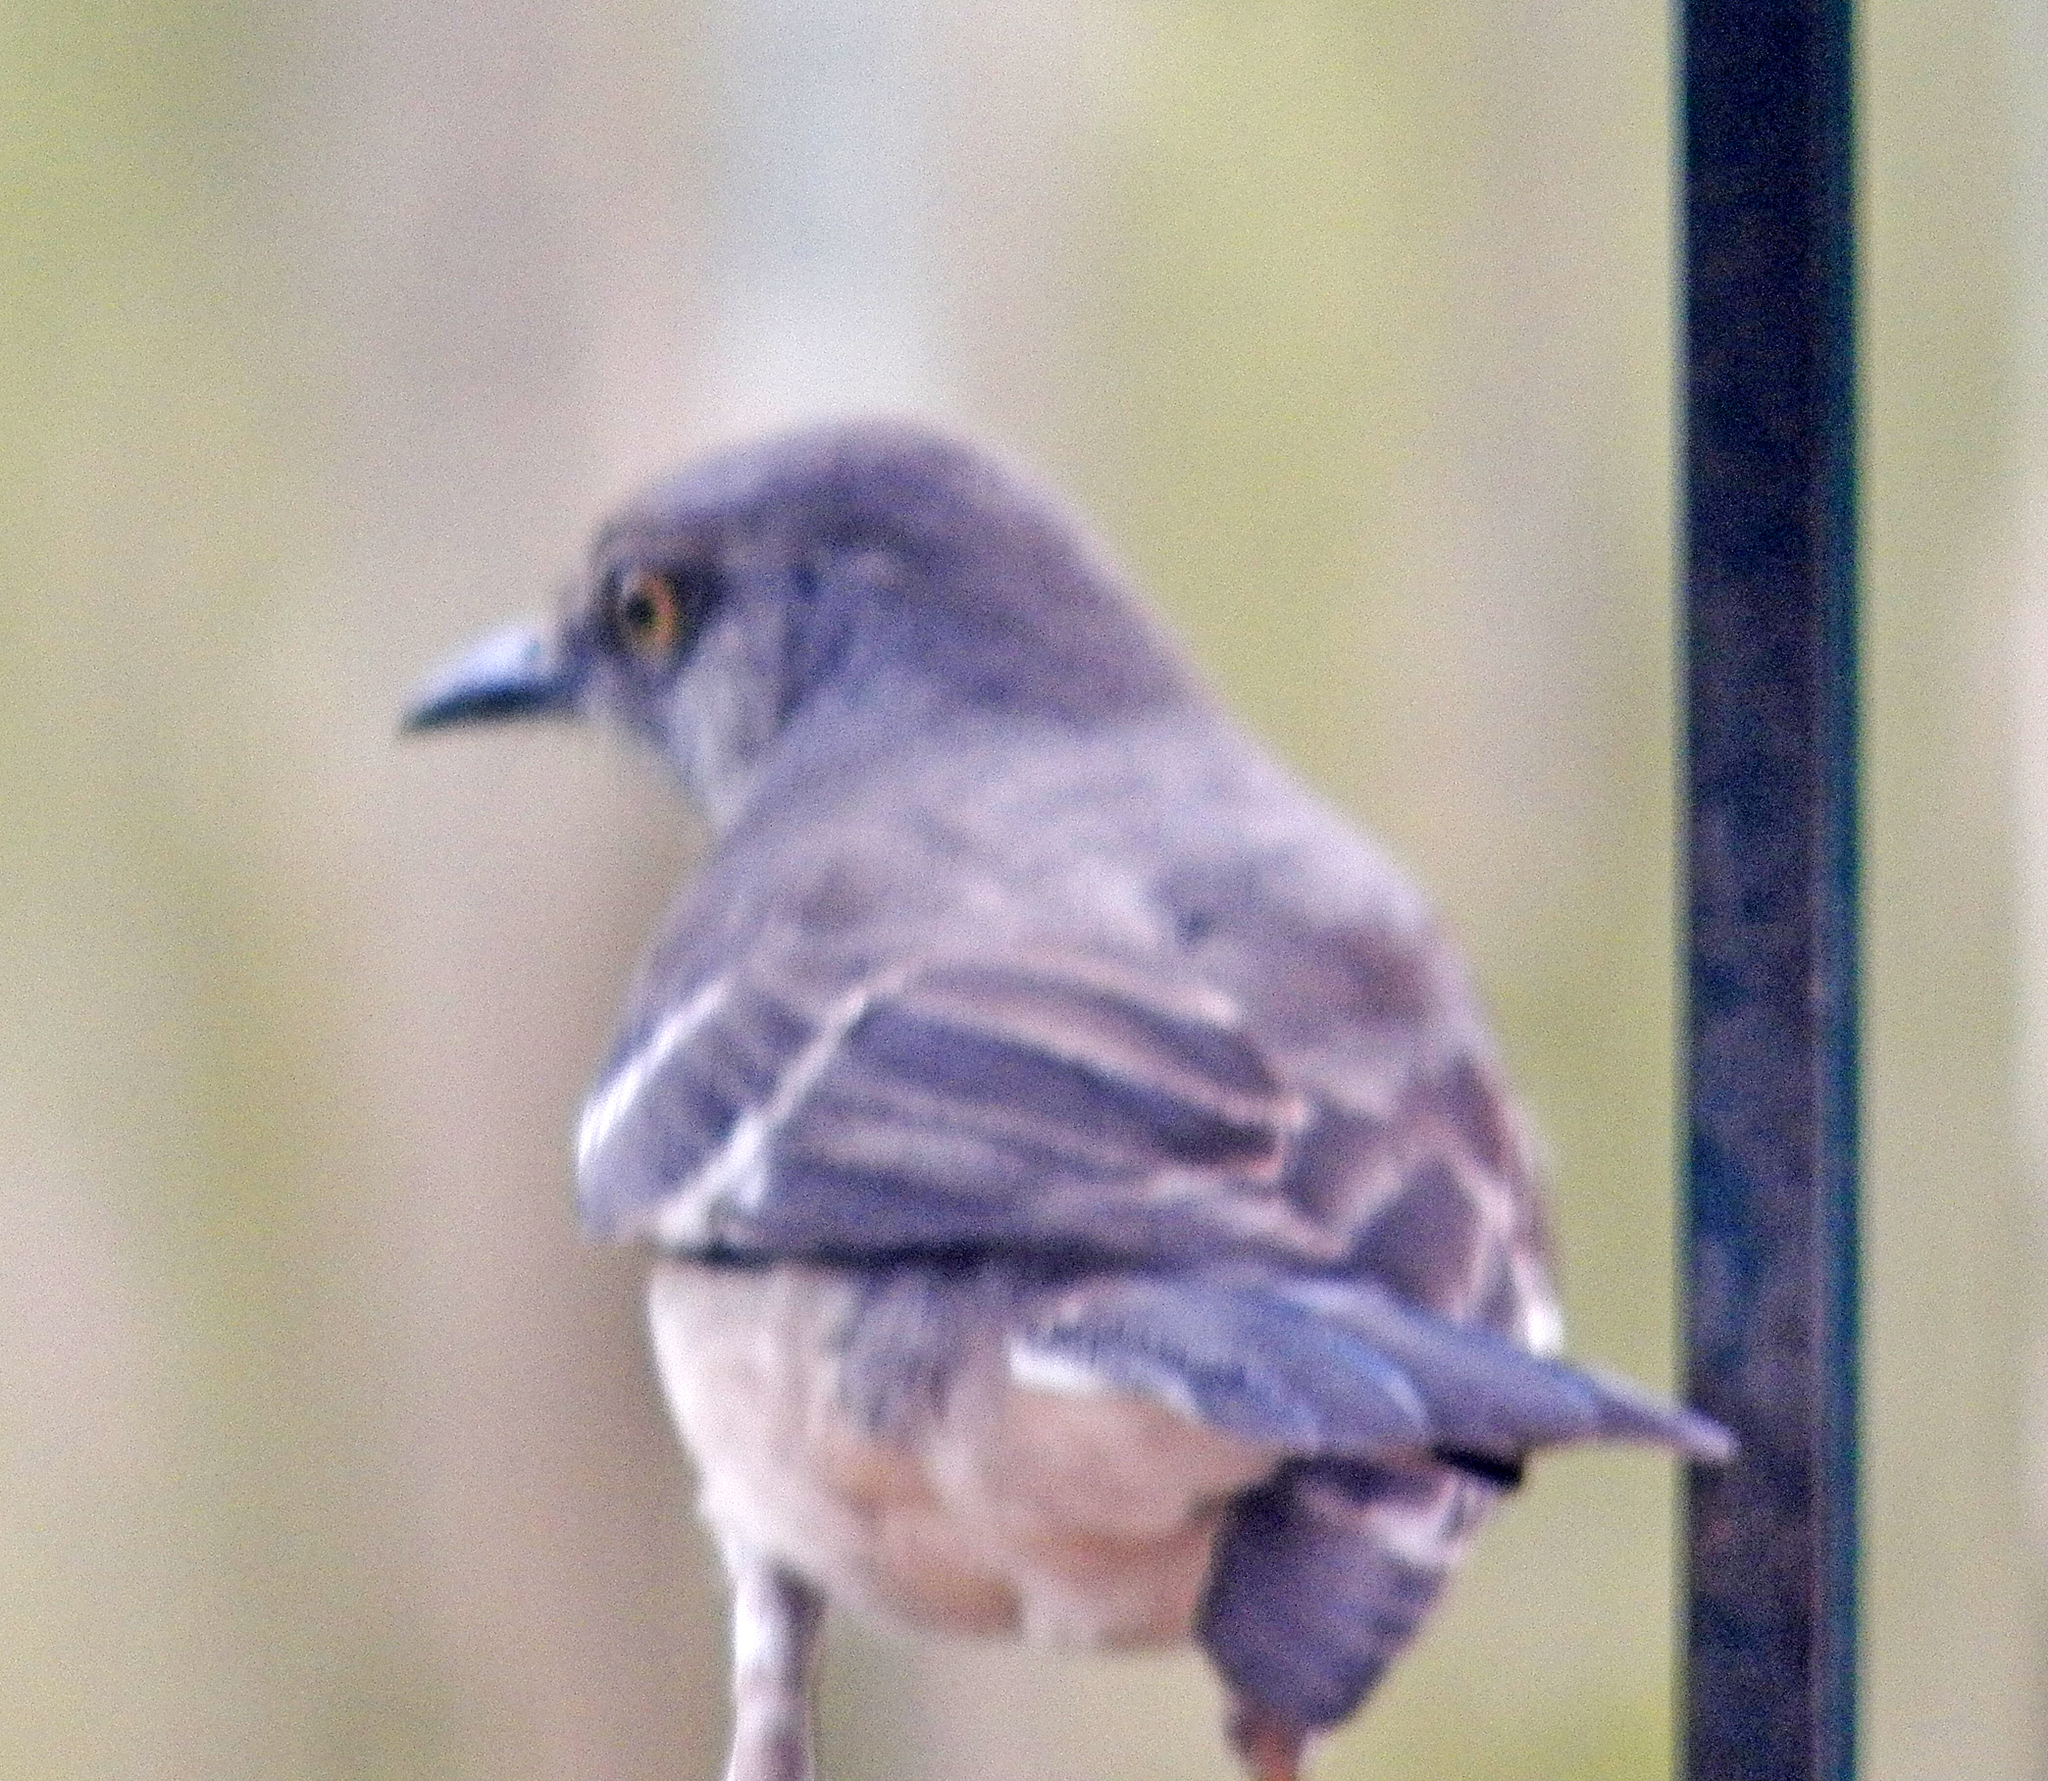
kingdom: Animalia
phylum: Chordata
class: Aves
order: Passeriformes
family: Mimidae
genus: Mimus
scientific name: Mimus polyglottos
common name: Northern mockingbird
